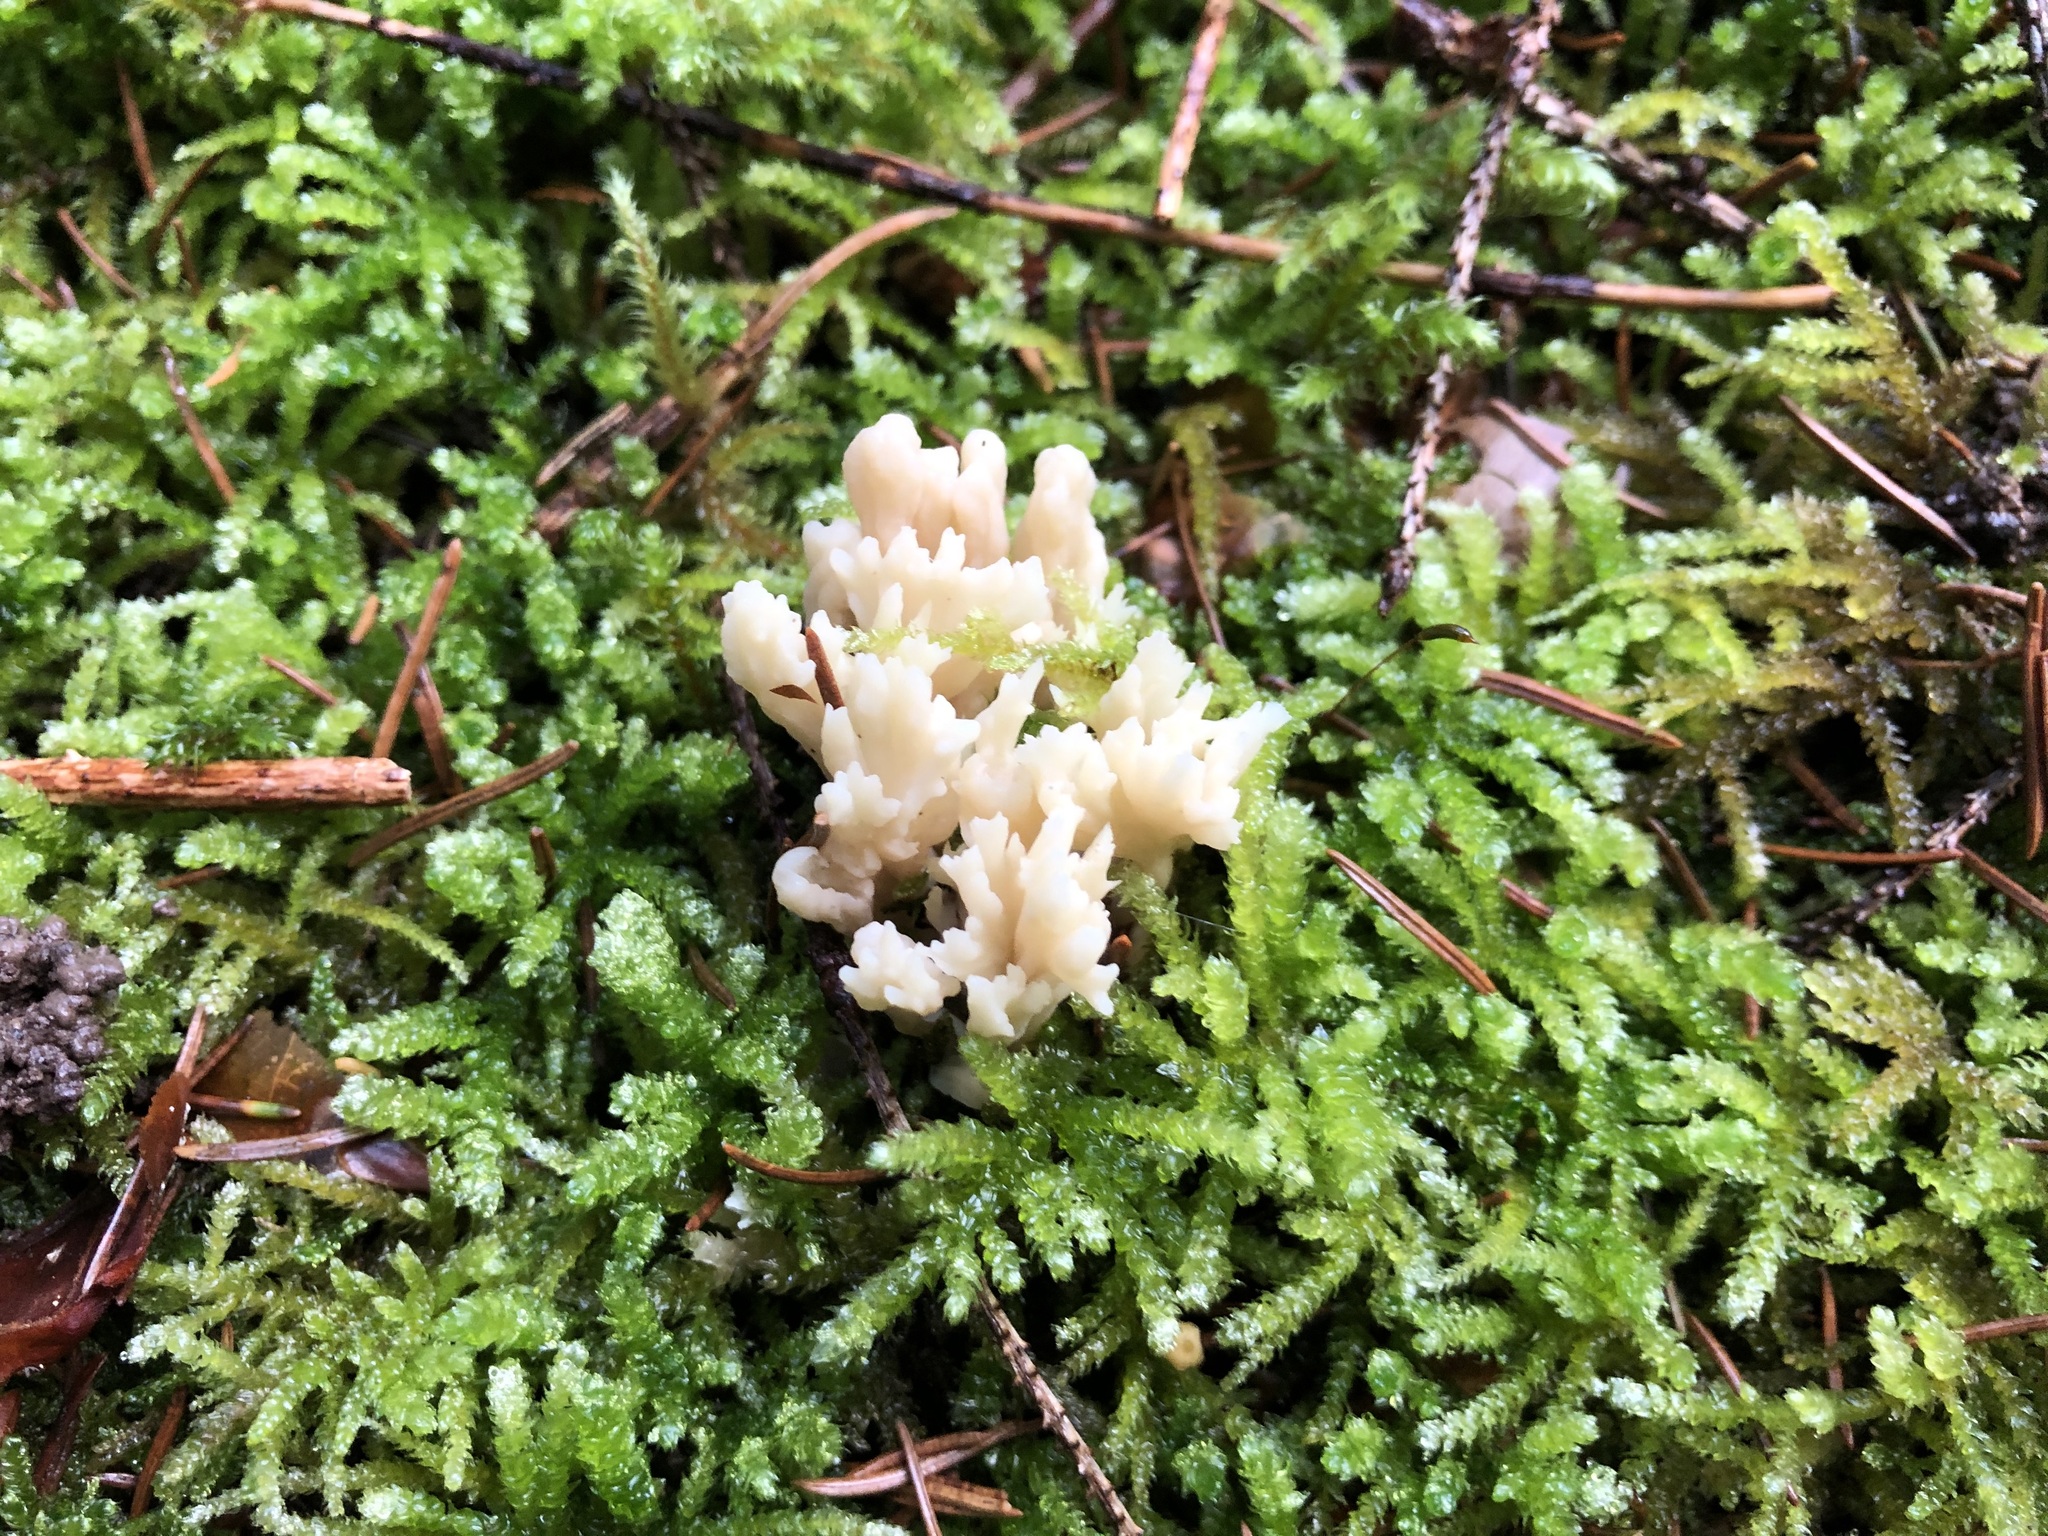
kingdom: Fungi
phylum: Basidiomycota
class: Agaricomycetes
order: Cantharellales
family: Hydnaceae
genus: Clavulina
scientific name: Clavulina coralloides
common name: Crested coral
